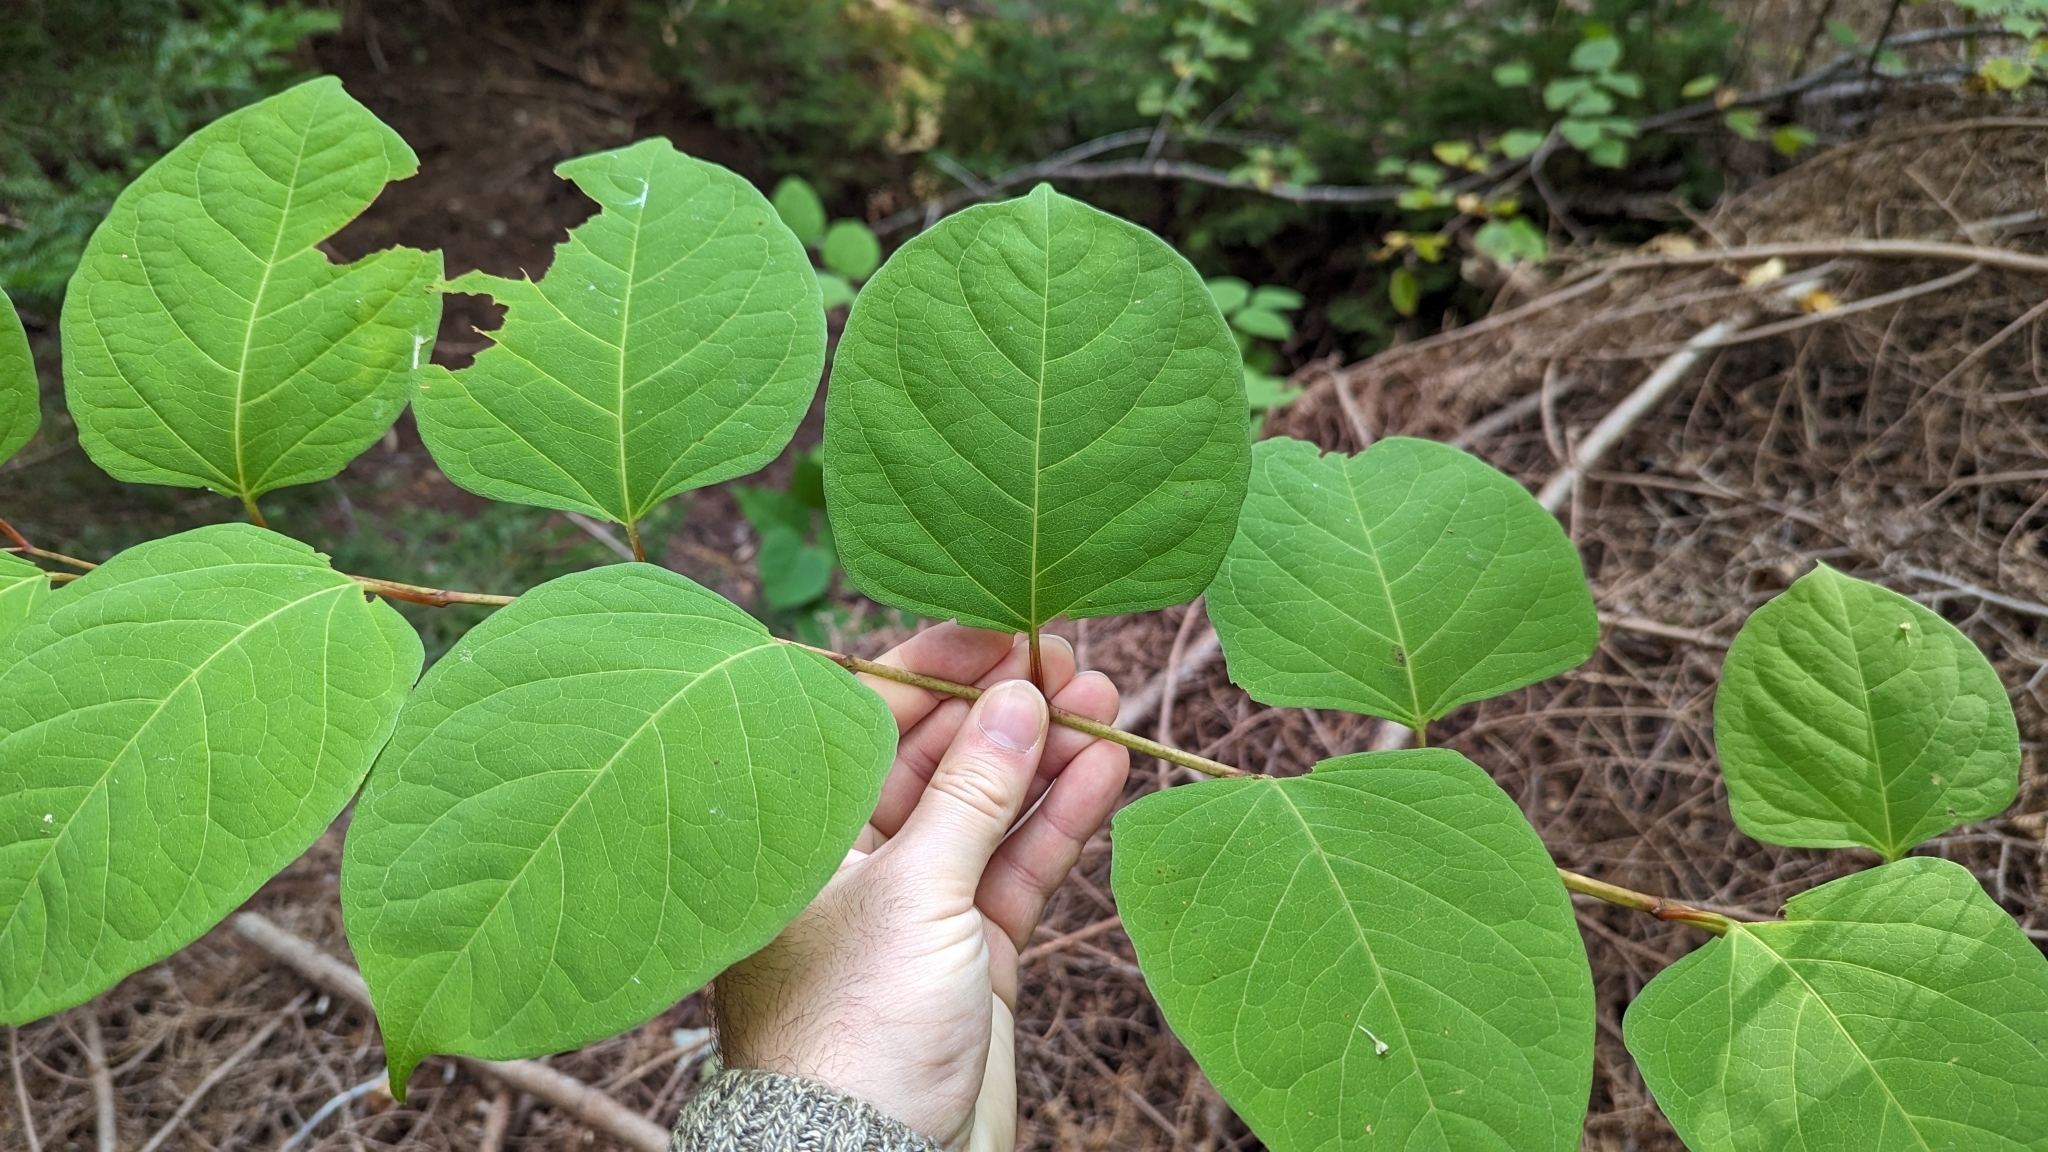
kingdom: Plantae
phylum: Tracheophyta
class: Magnoliopsida
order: Caryophyllales
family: Polygonaceae
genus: Reynoutria
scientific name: Reynoutria japonica
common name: Japanese knotweed
